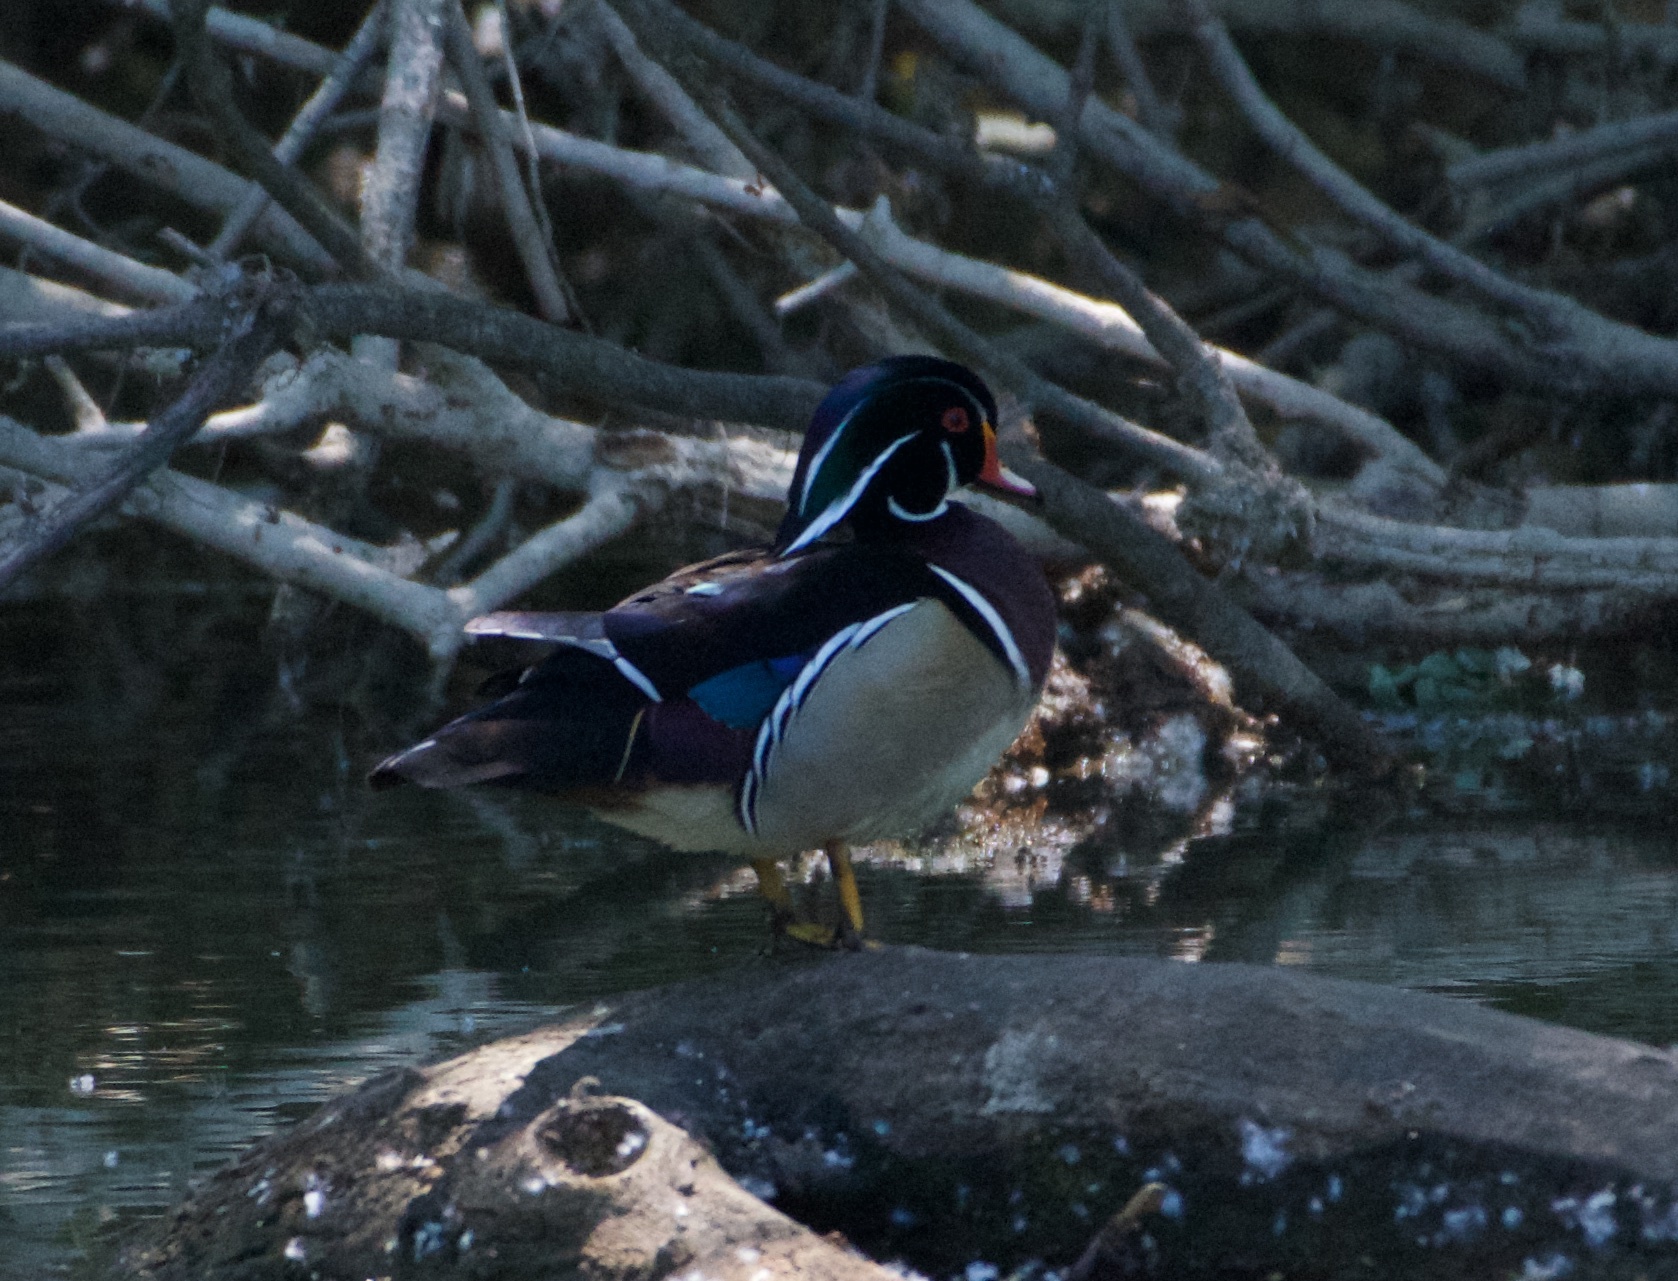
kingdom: Animalia
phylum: Chordata
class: Aves
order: Anseriformes
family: Anatidae
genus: Aix
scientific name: Aix sponsa
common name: Wood duck
